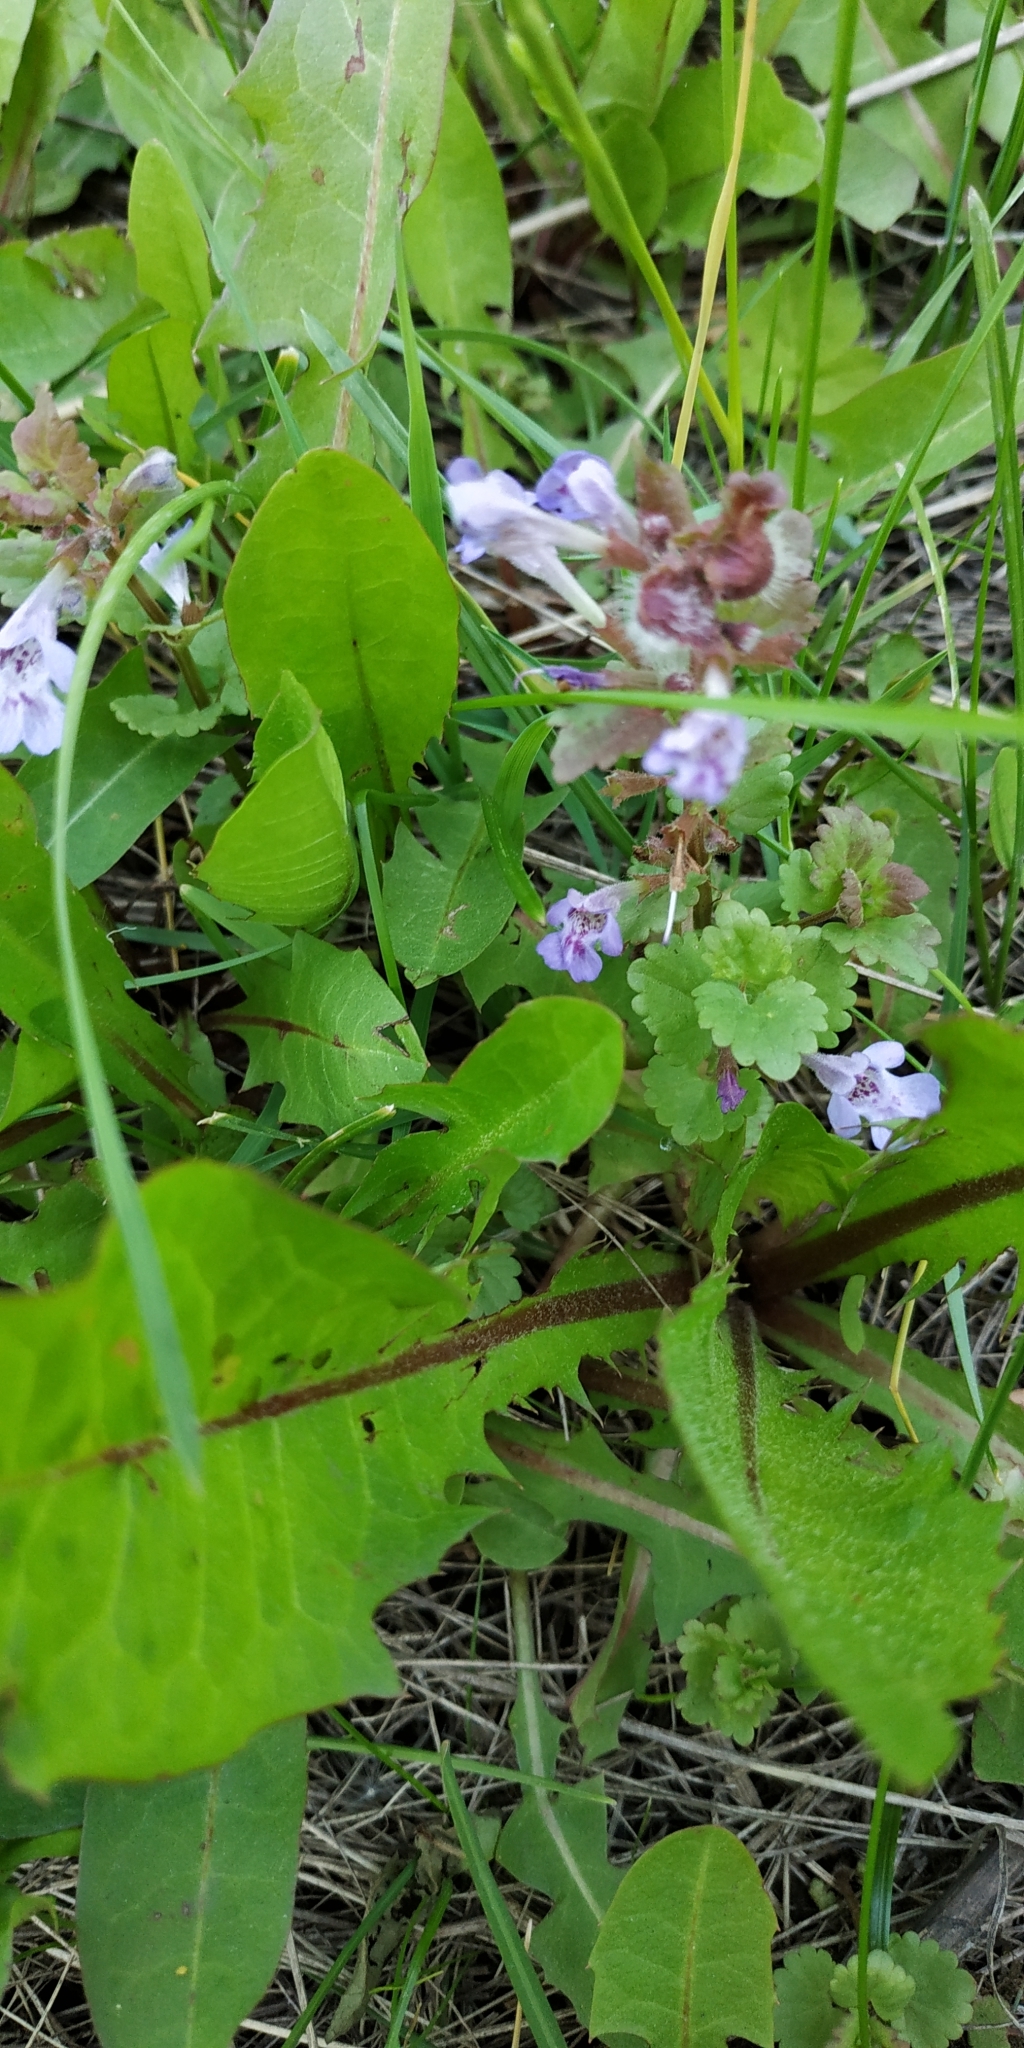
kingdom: Plantae
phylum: Tracheophyta
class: Magnoliopsida
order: Lamiales
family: Lamiaceae
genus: Glechoma
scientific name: Glechoma hederacea
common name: Ground ivy
